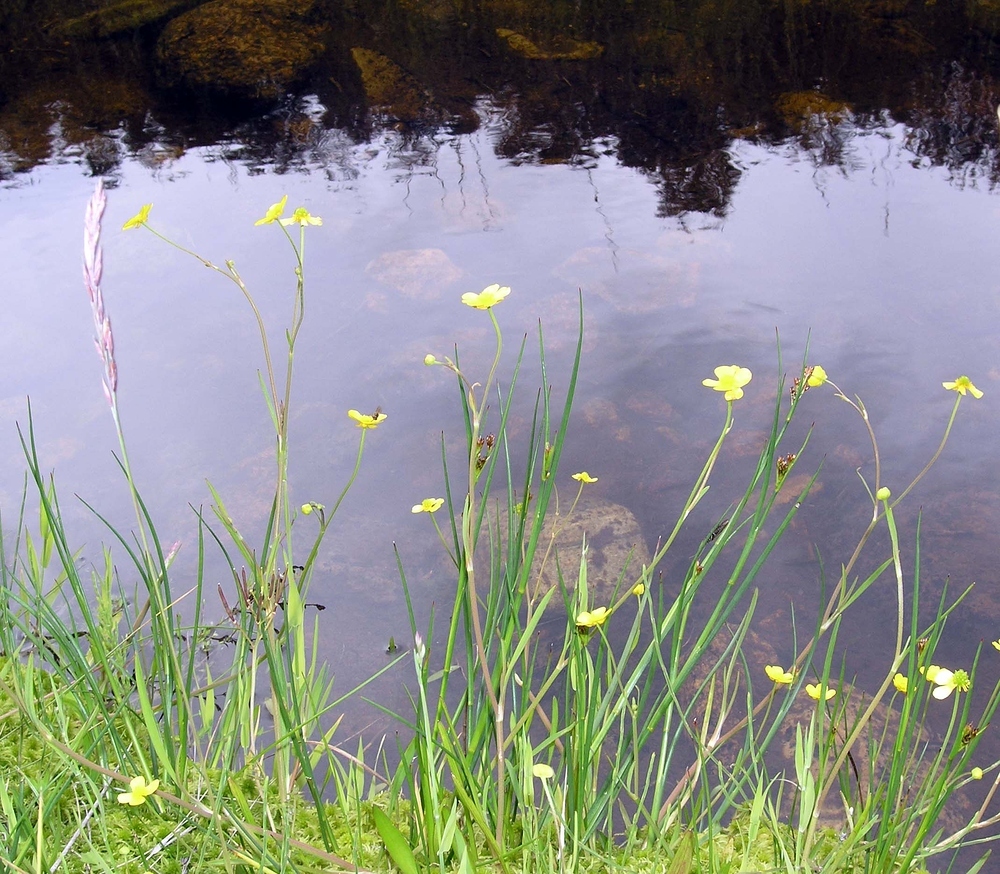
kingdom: Plantae
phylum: Tracheophyta
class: Magnoliopsida
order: Ranunculales
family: Ranunculaceae
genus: Ranunculus
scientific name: Ranunculus flammula
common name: Lesser spearwort
